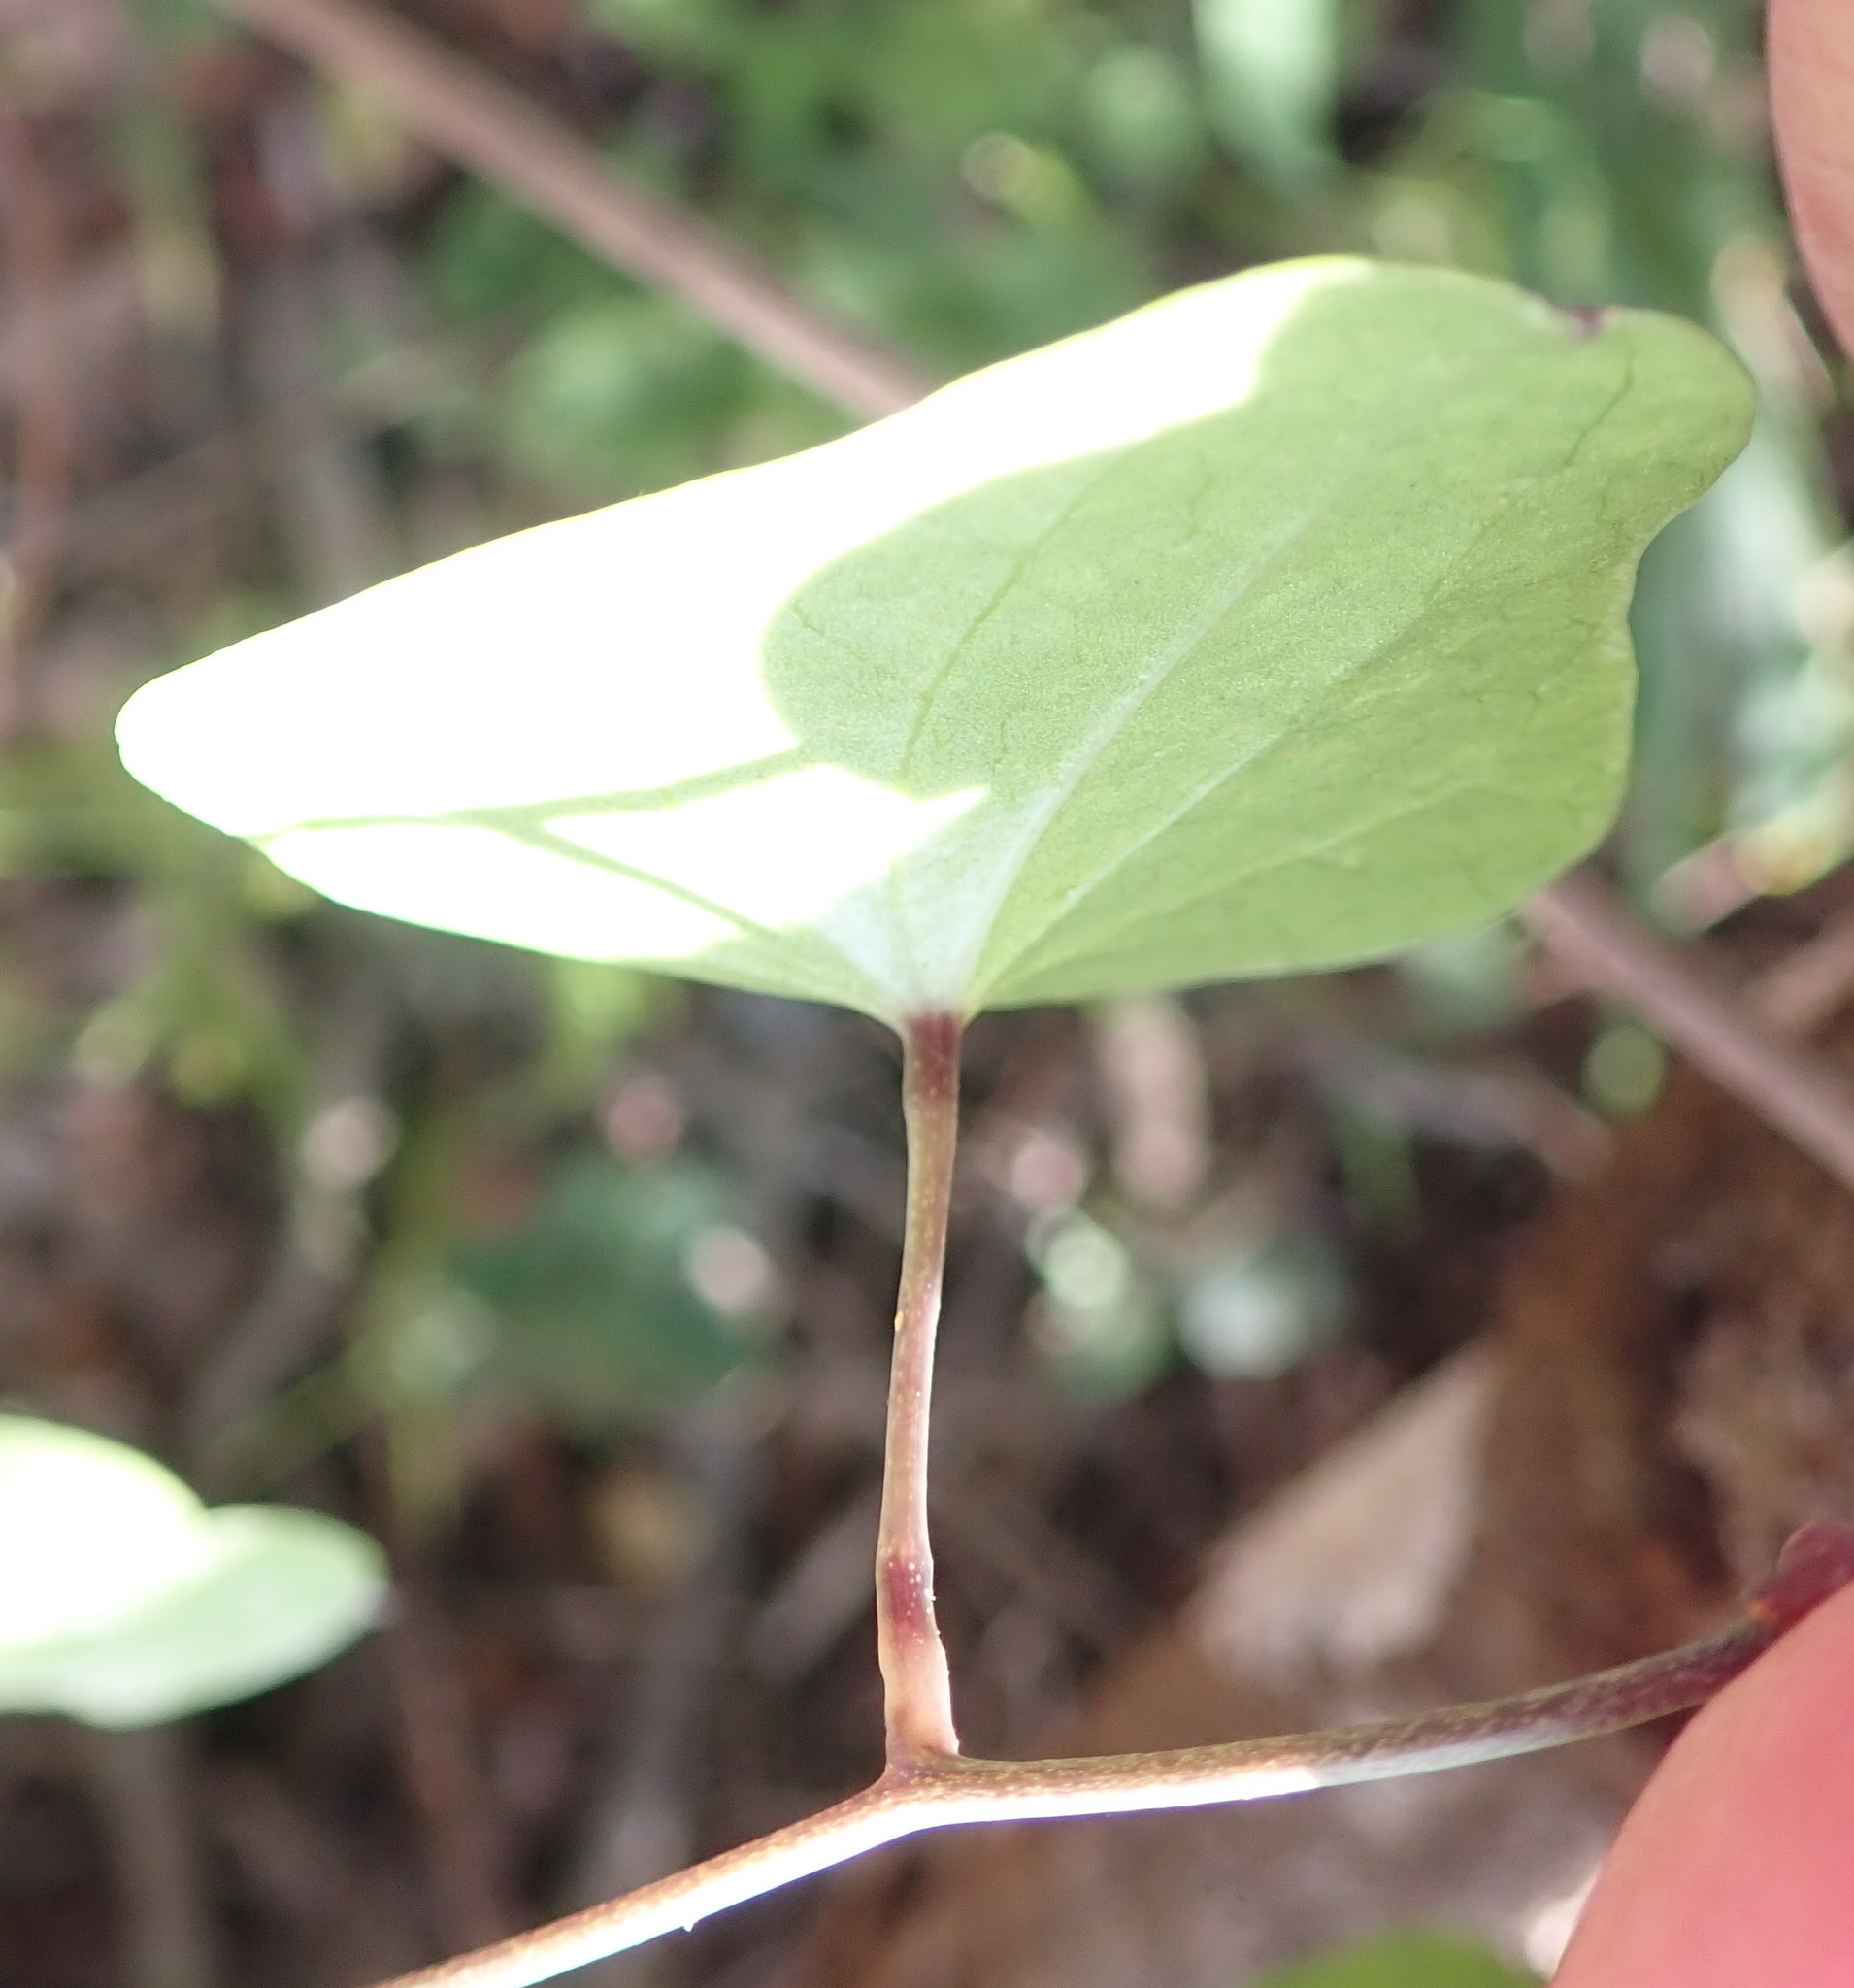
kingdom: Plantae
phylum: Tracheophyta
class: Liliopsida
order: Dioscoreales
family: Dioscoreaceae
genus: Dioscorea
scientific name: Dioscorea mundii
